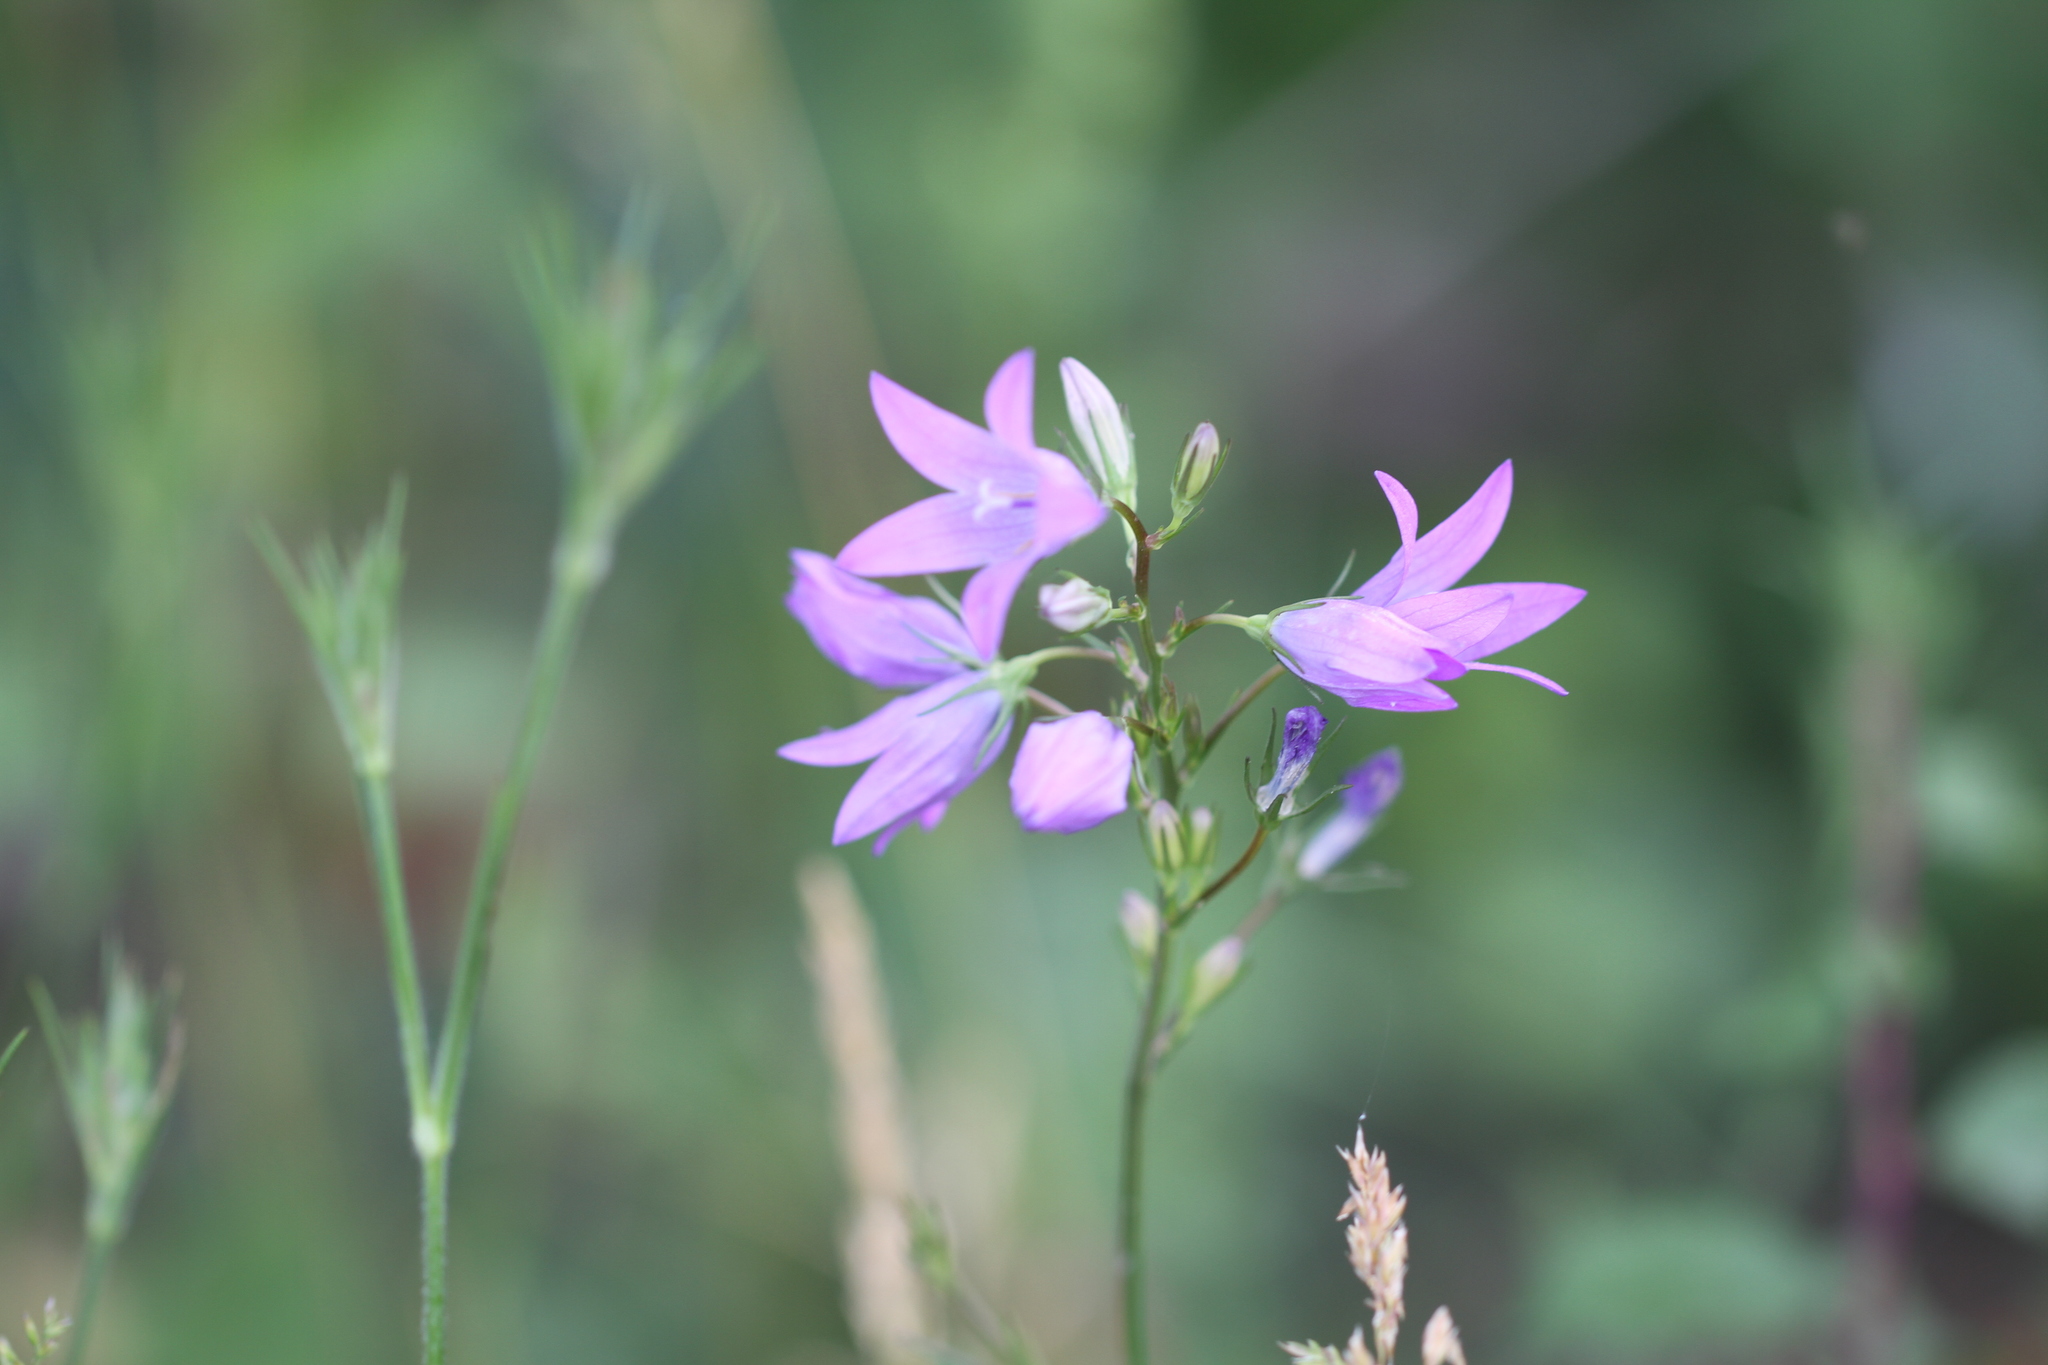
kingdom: Plantae
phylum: Tracheophyta
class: Magnoliopsida
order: Asterales
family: Campanulaceae
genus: Campanula
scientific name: Campanula rapunculus
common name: Rampion bellflower
